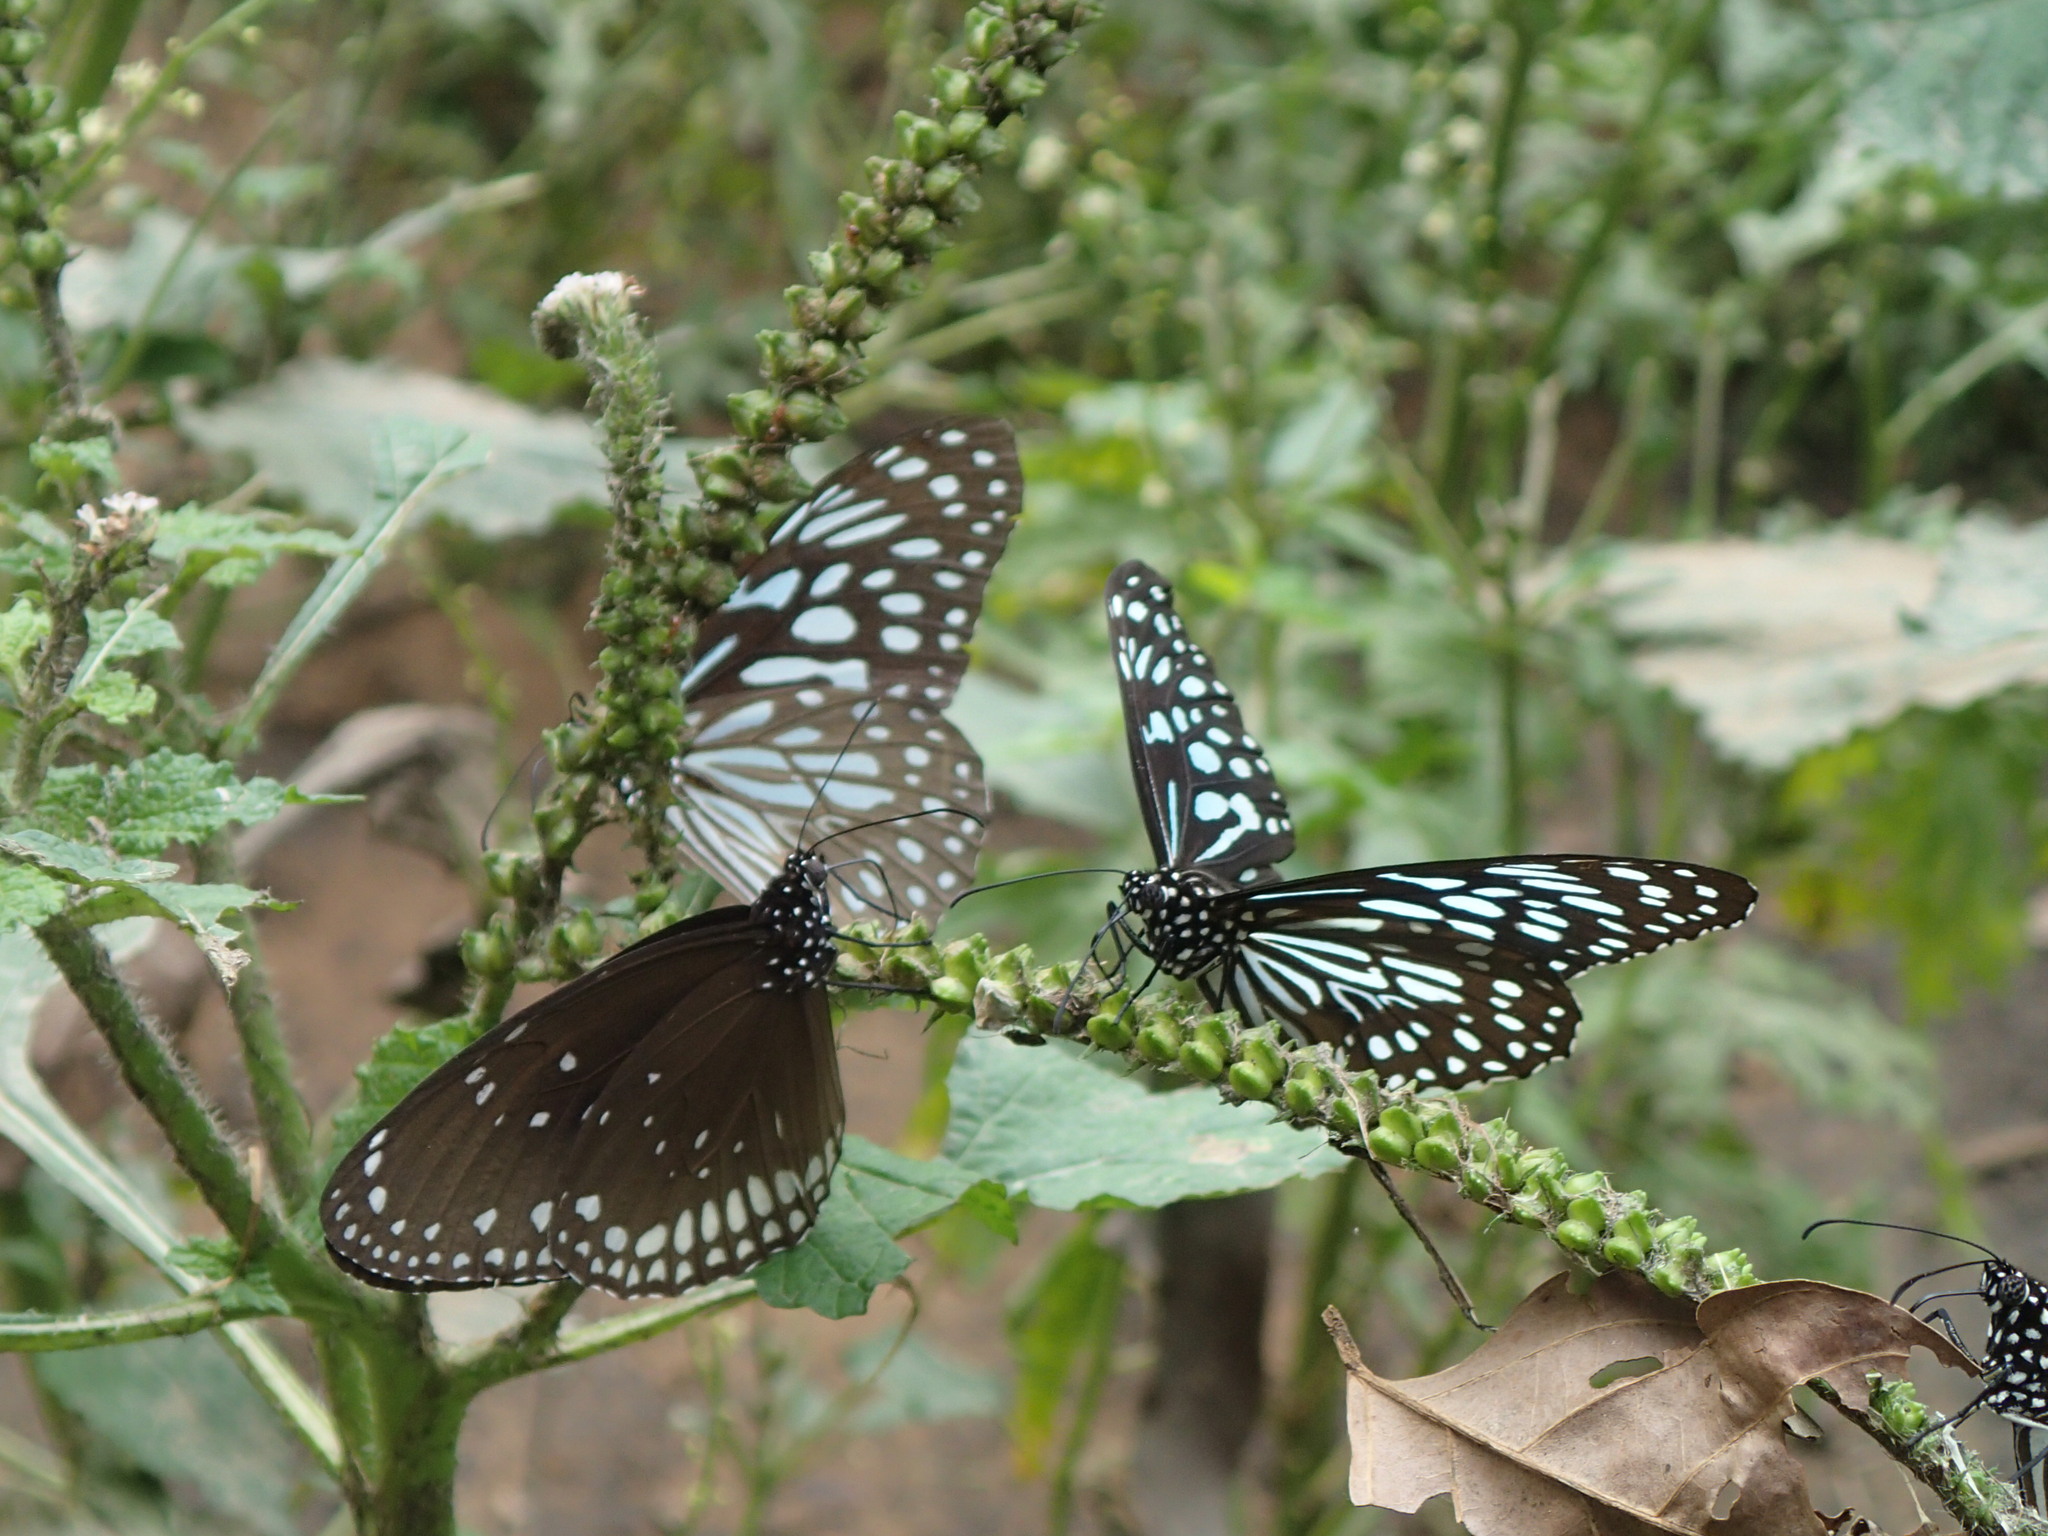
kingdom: Animalia
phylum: Arthropoda
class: Insecta
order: Lepidoptera
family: Nymphalidae
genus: Tirumala
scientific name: Tirumala septentrionis
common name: Dark blue tiger butterfly
